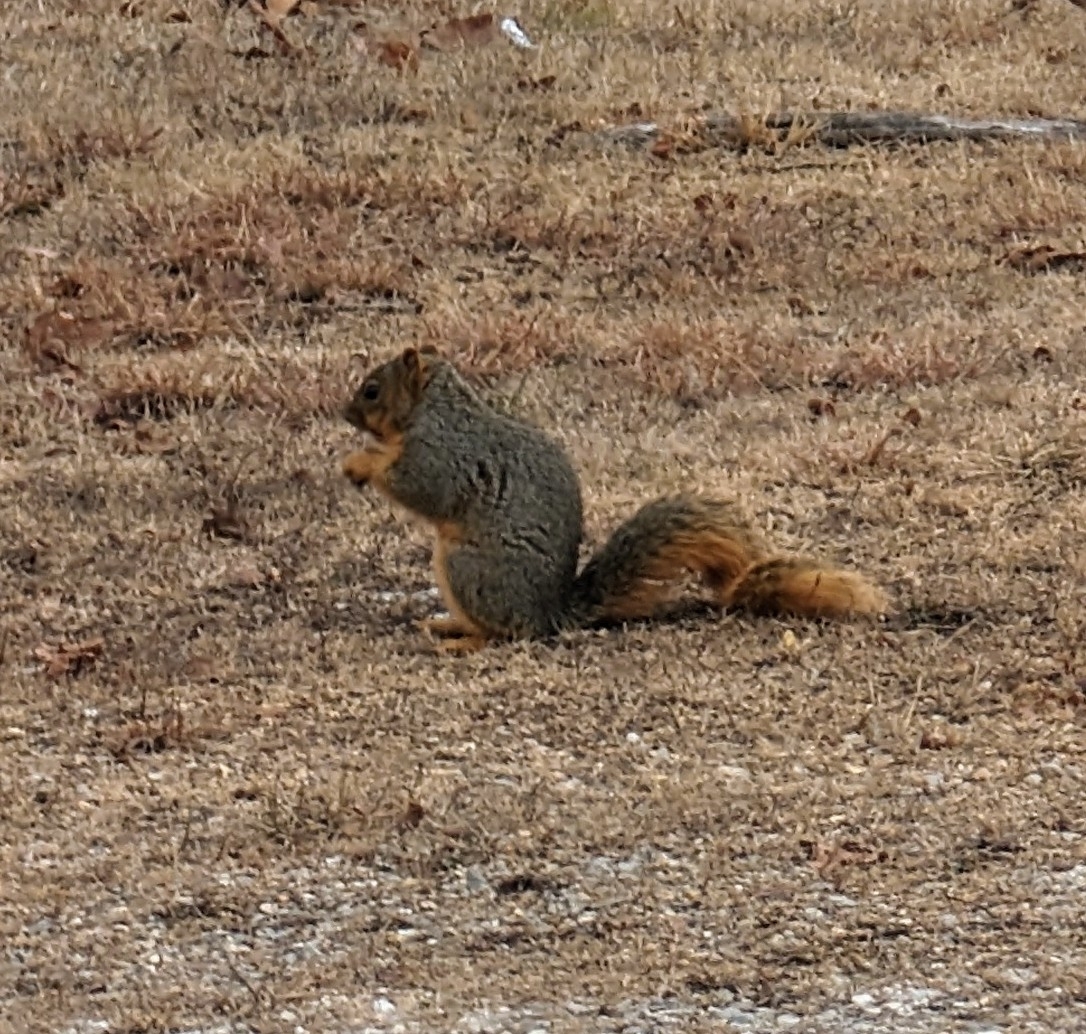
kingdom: Animalia
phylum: Chordata
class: Mammalia
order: Rodentia
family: Sciuridae
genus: Sciurus
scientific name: Sciurus niger
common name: Fox squirrel
